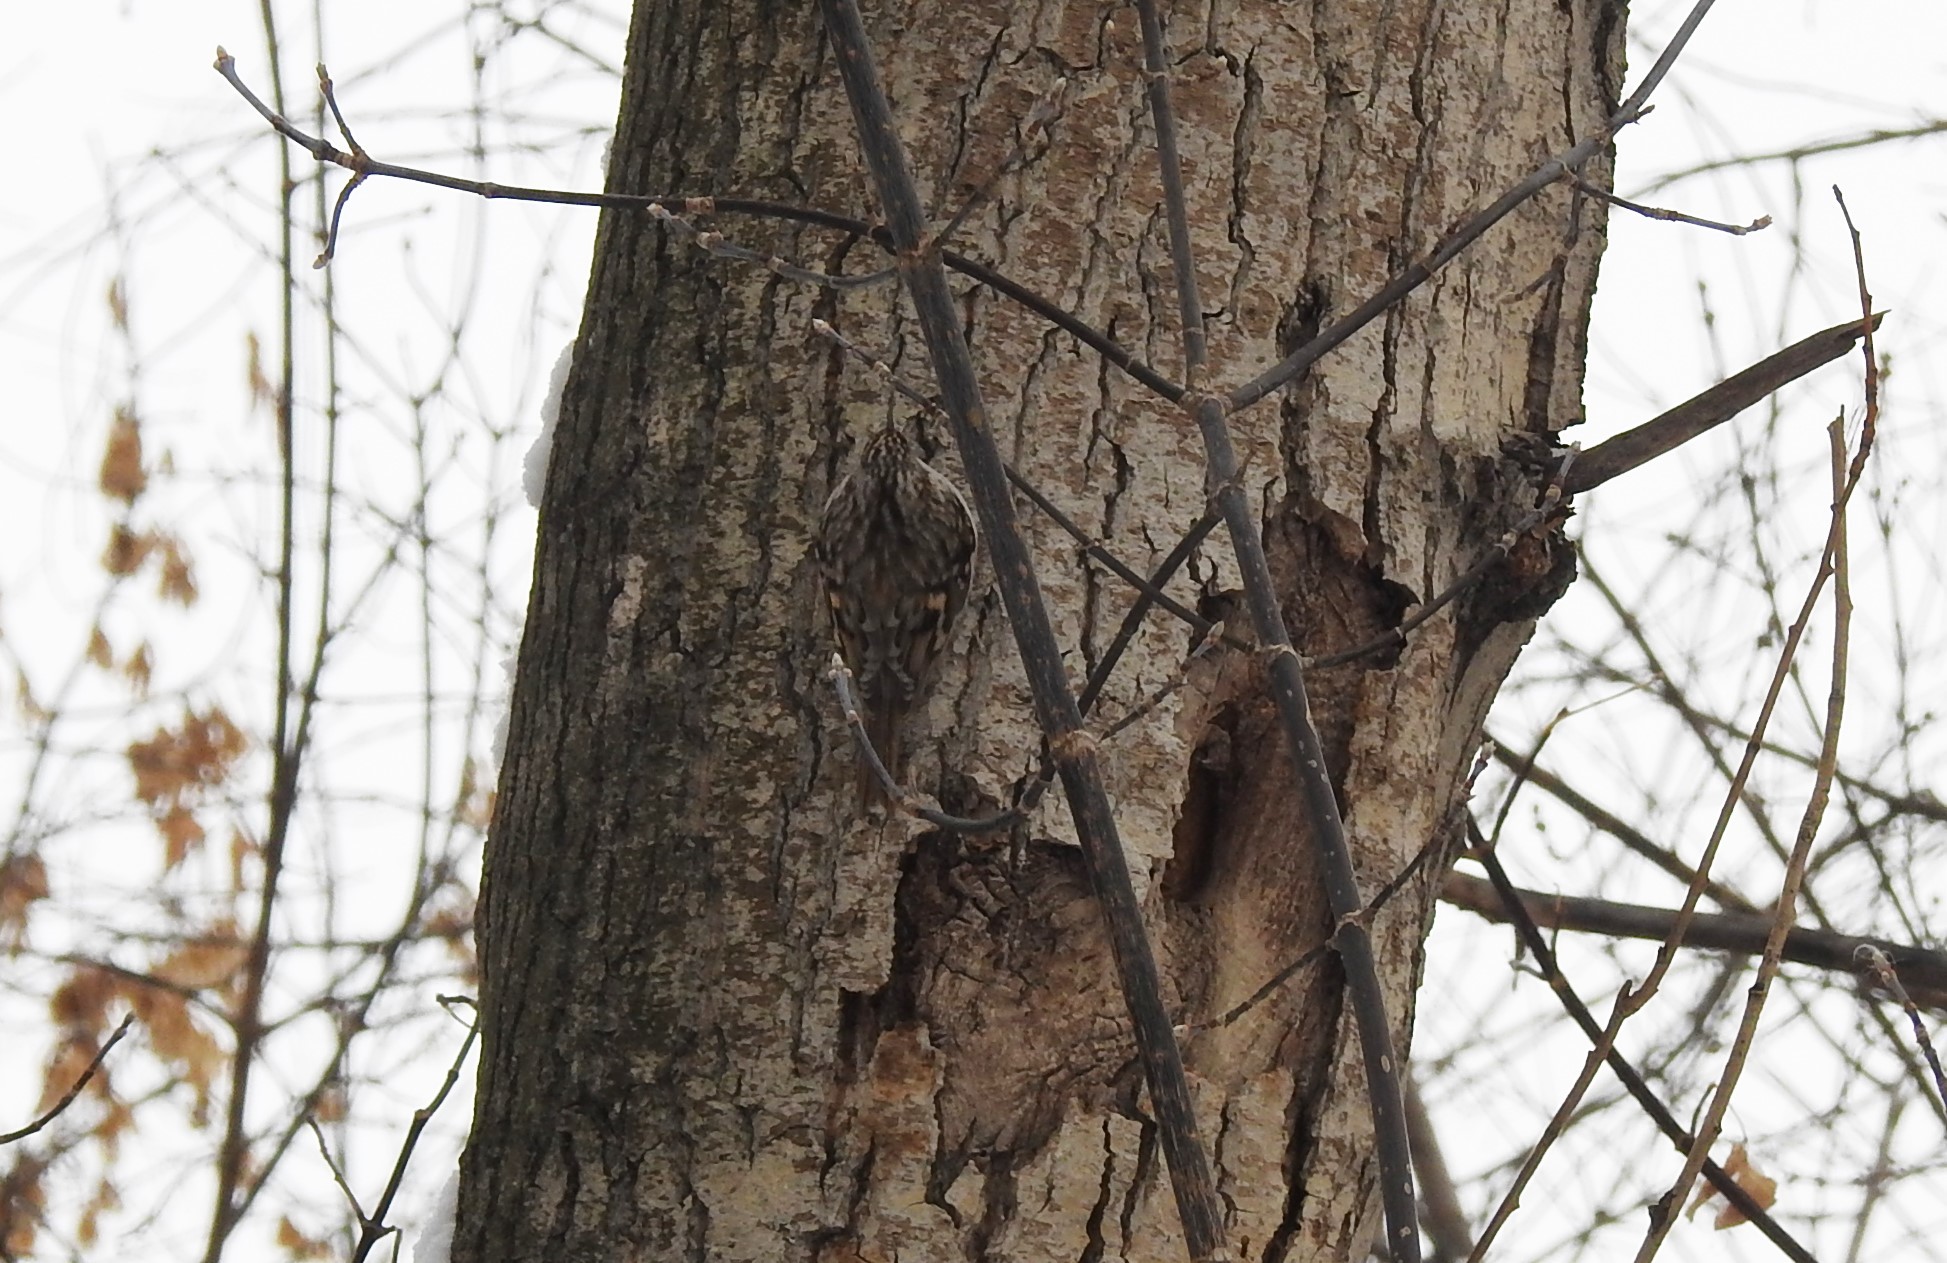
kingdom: Animalia
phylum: Chordata
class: Aves
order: Passeriformes
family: Certhiidae
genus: Certhia
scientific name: Certhia familiaris
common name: Eurasian treecreeper
